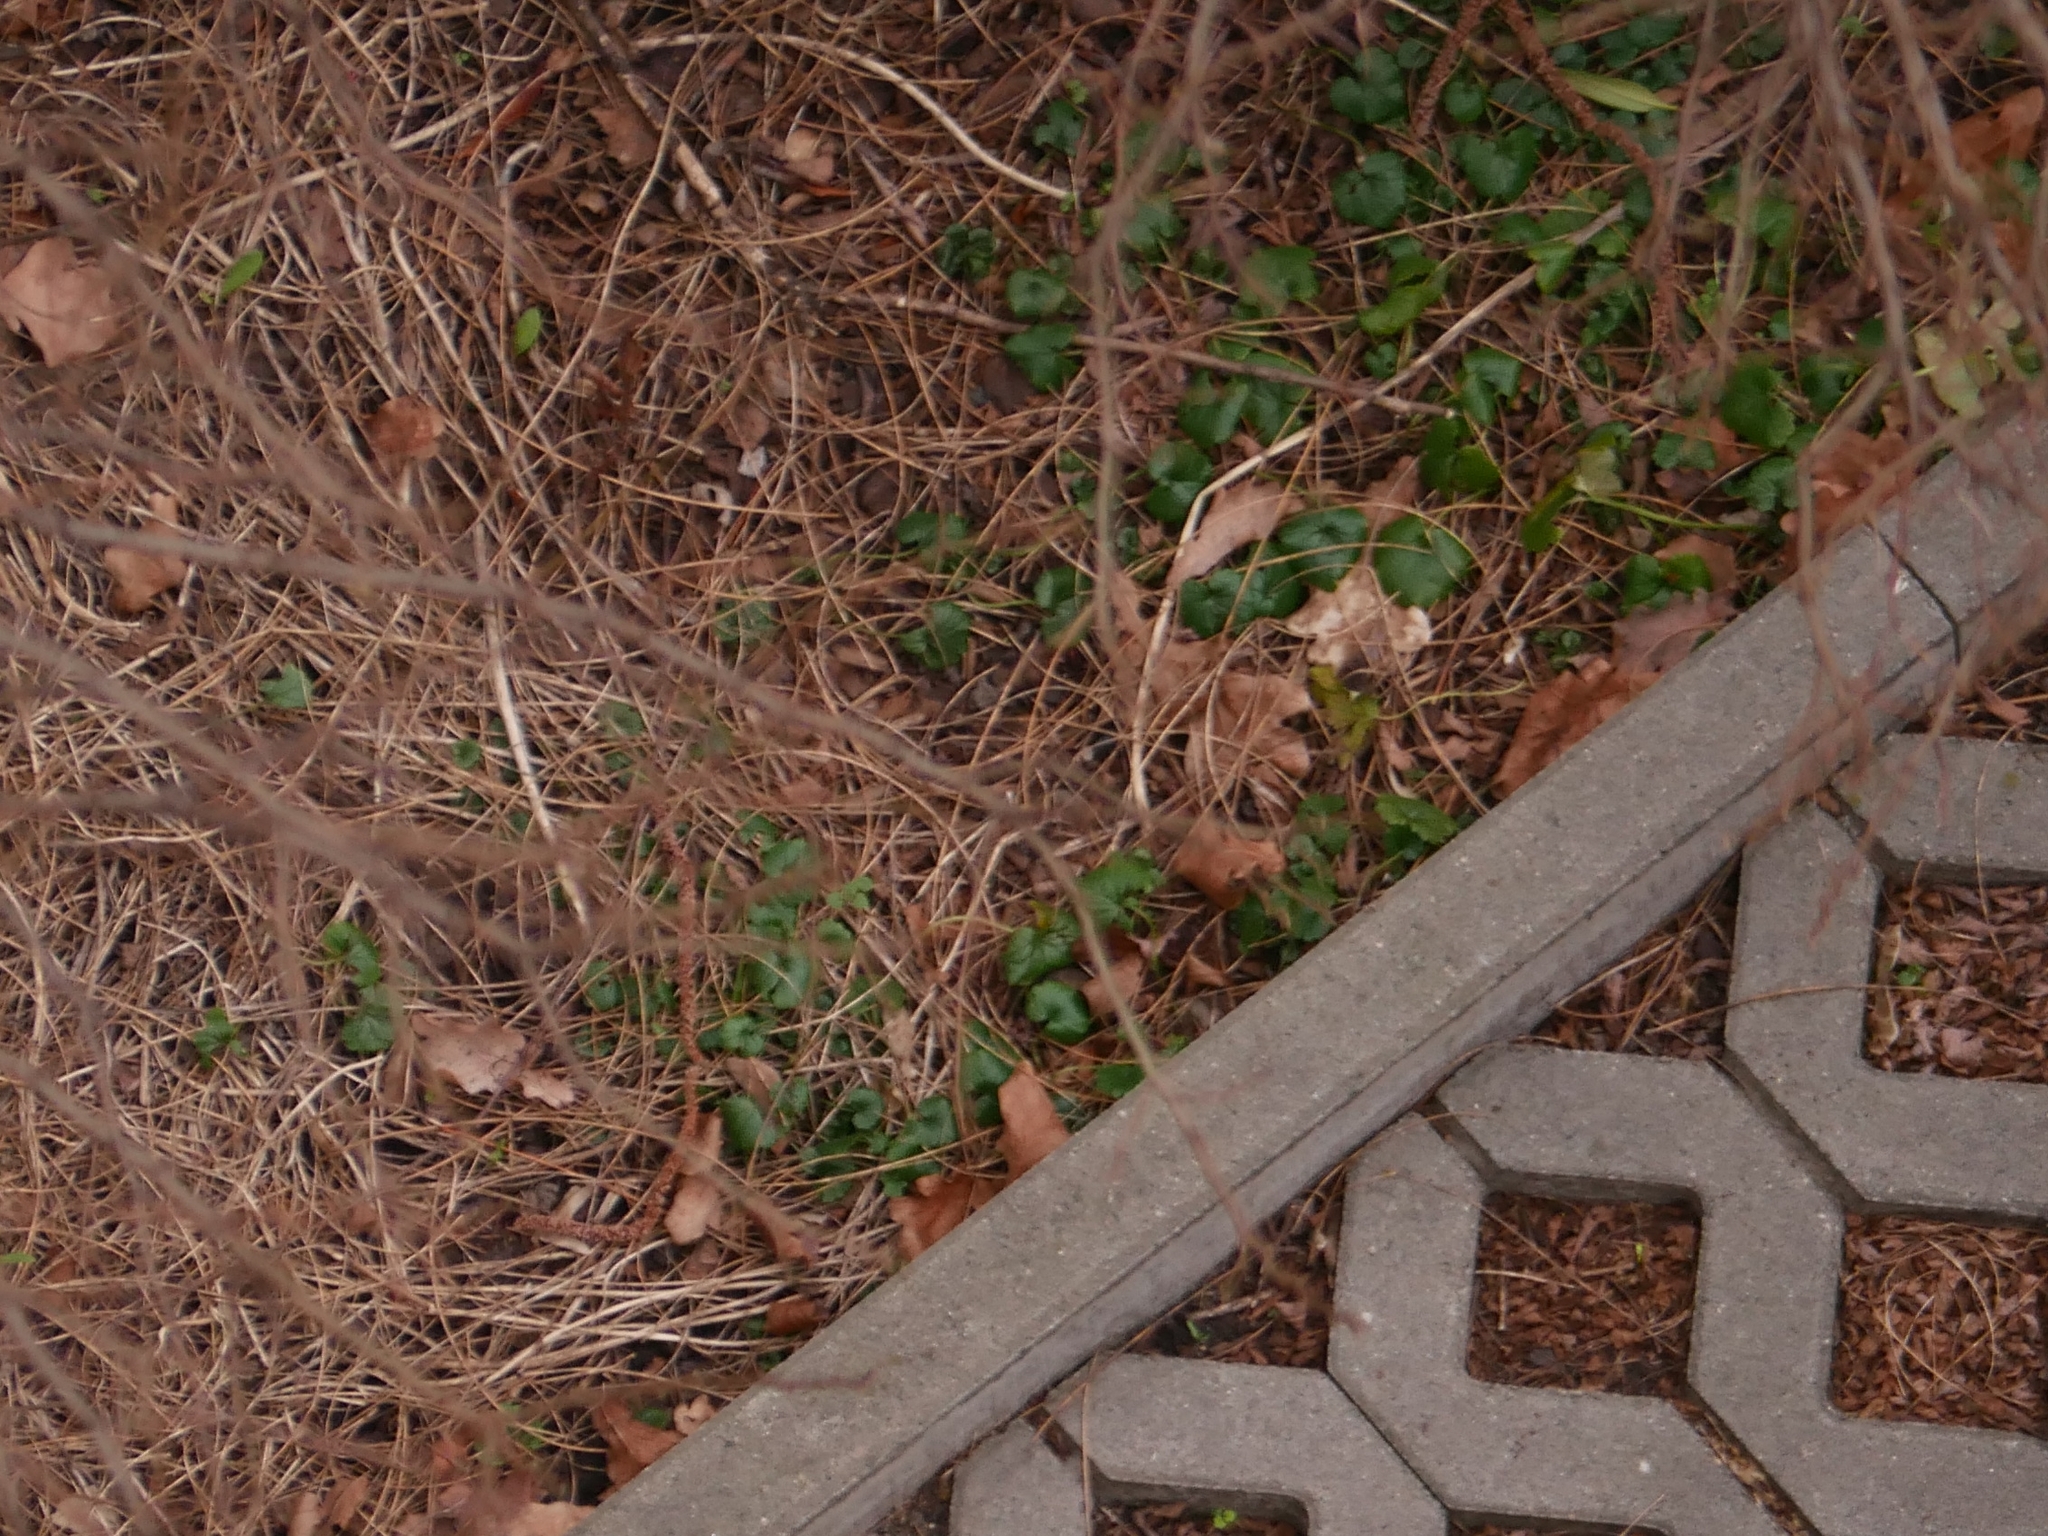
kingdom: Plantae
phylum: Tracheophyta
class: Magnoliopsida
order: Brassicales
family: Brassicaceae
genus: Alliaria
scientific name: Alliaria petiolata
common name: Garlic mustard
